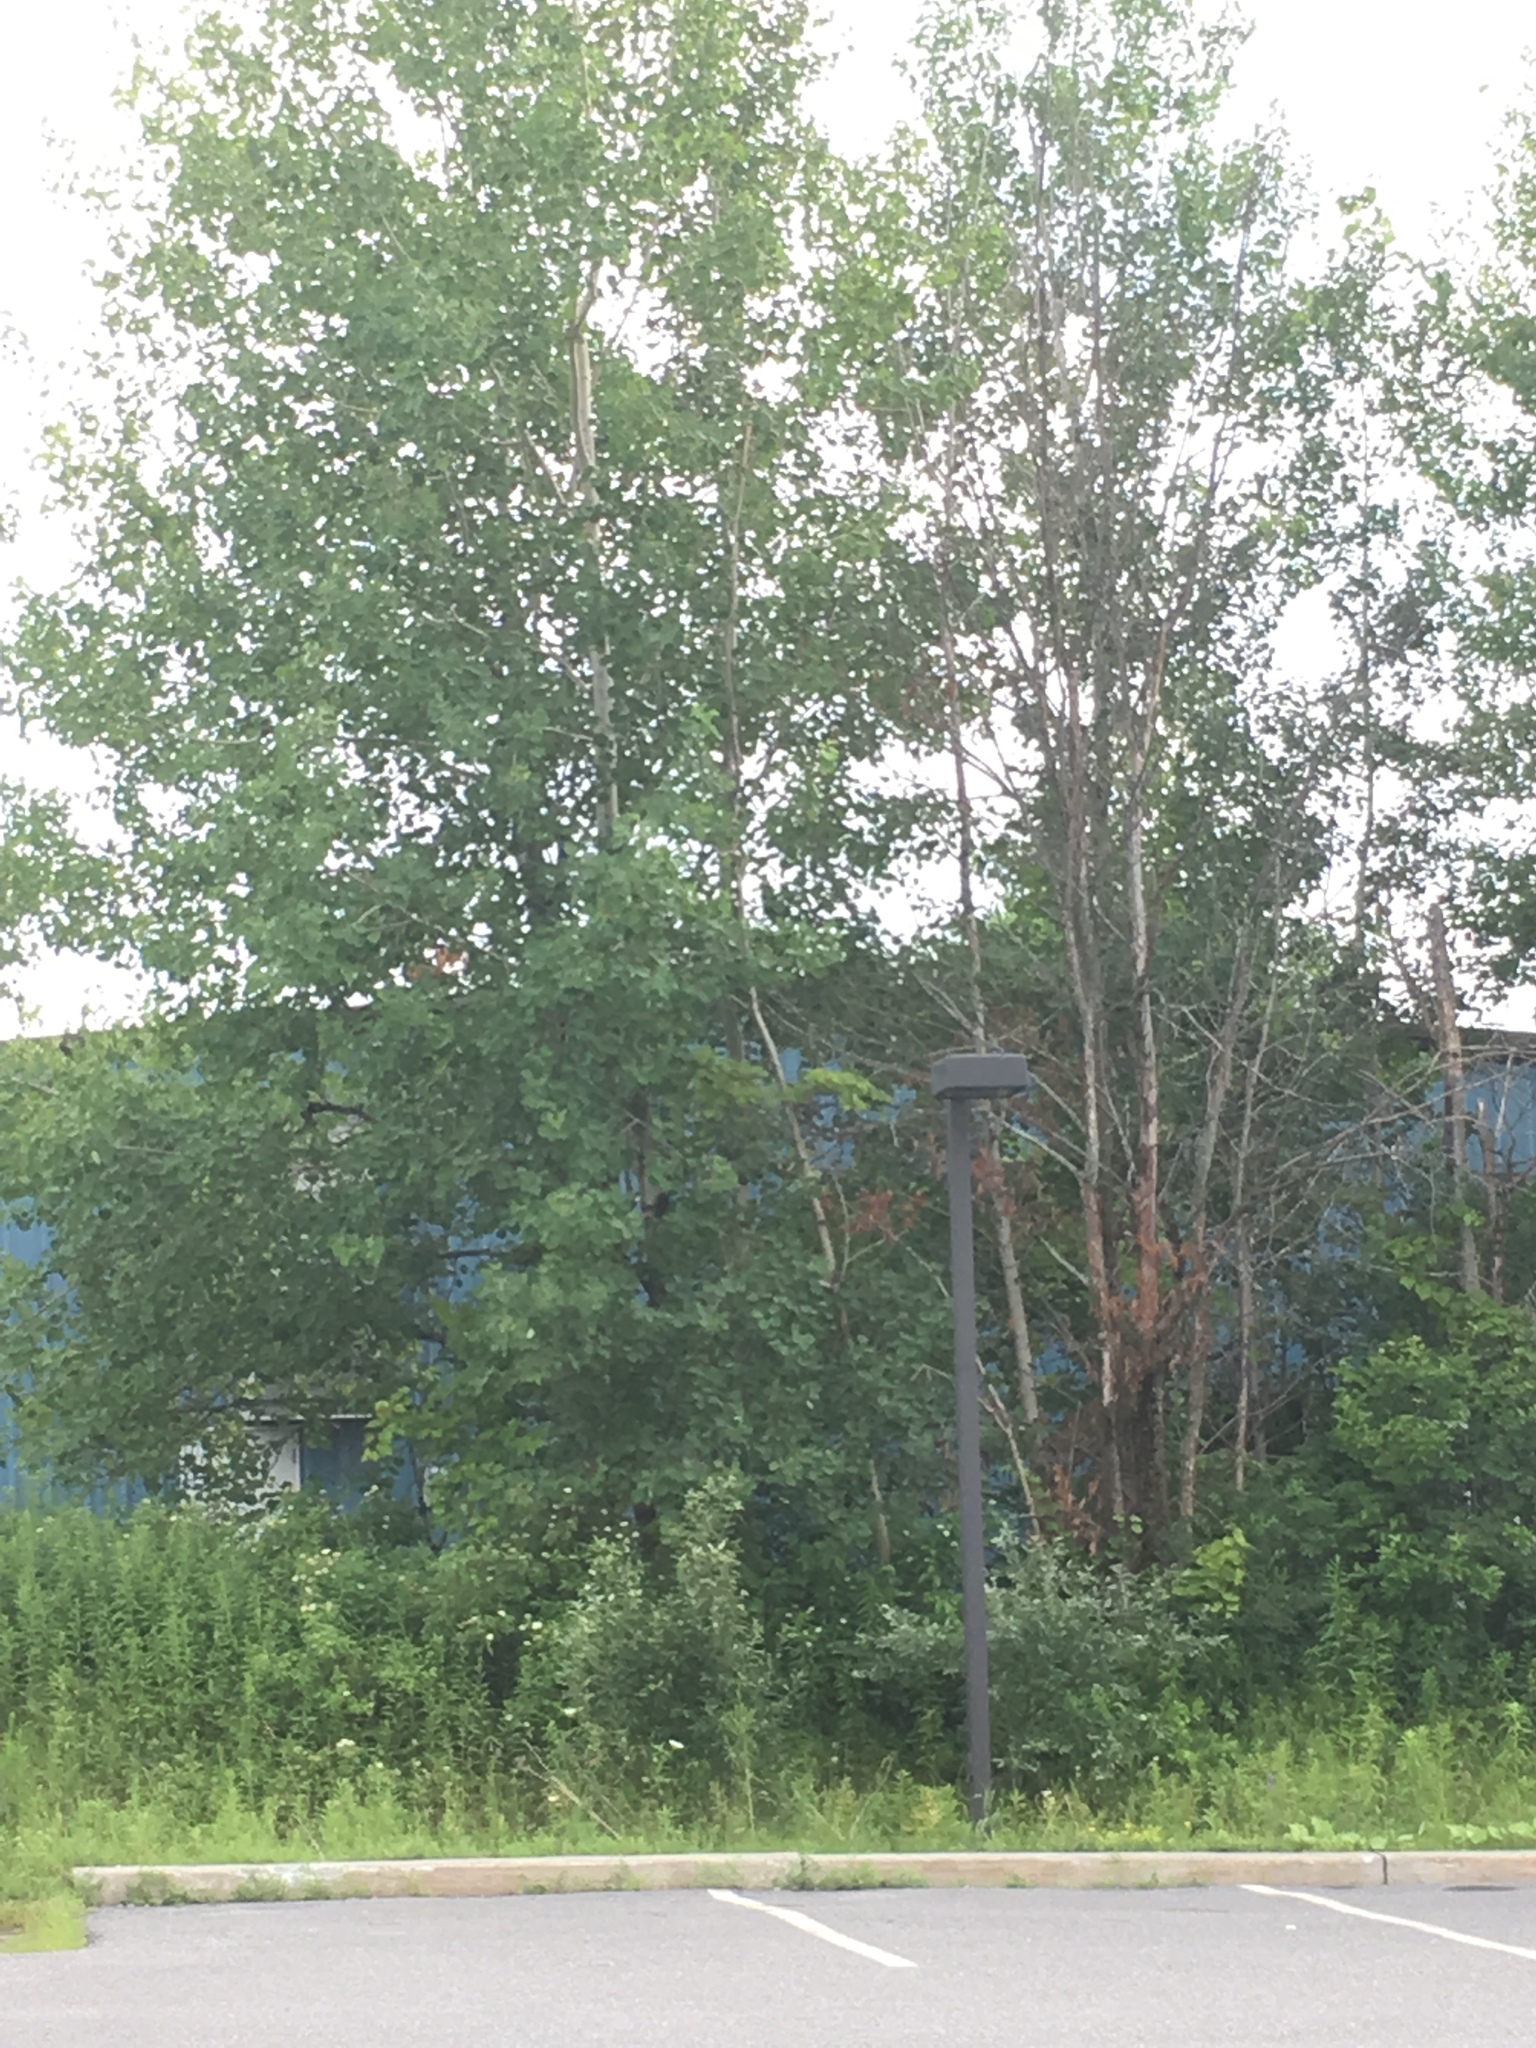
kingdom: Plantae
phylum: Tracheophyta
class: Magnoliopsida
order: Malpighiales
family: Salicaceae
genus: Populus
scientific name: Populus tremuloides
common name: Quaking aspen
